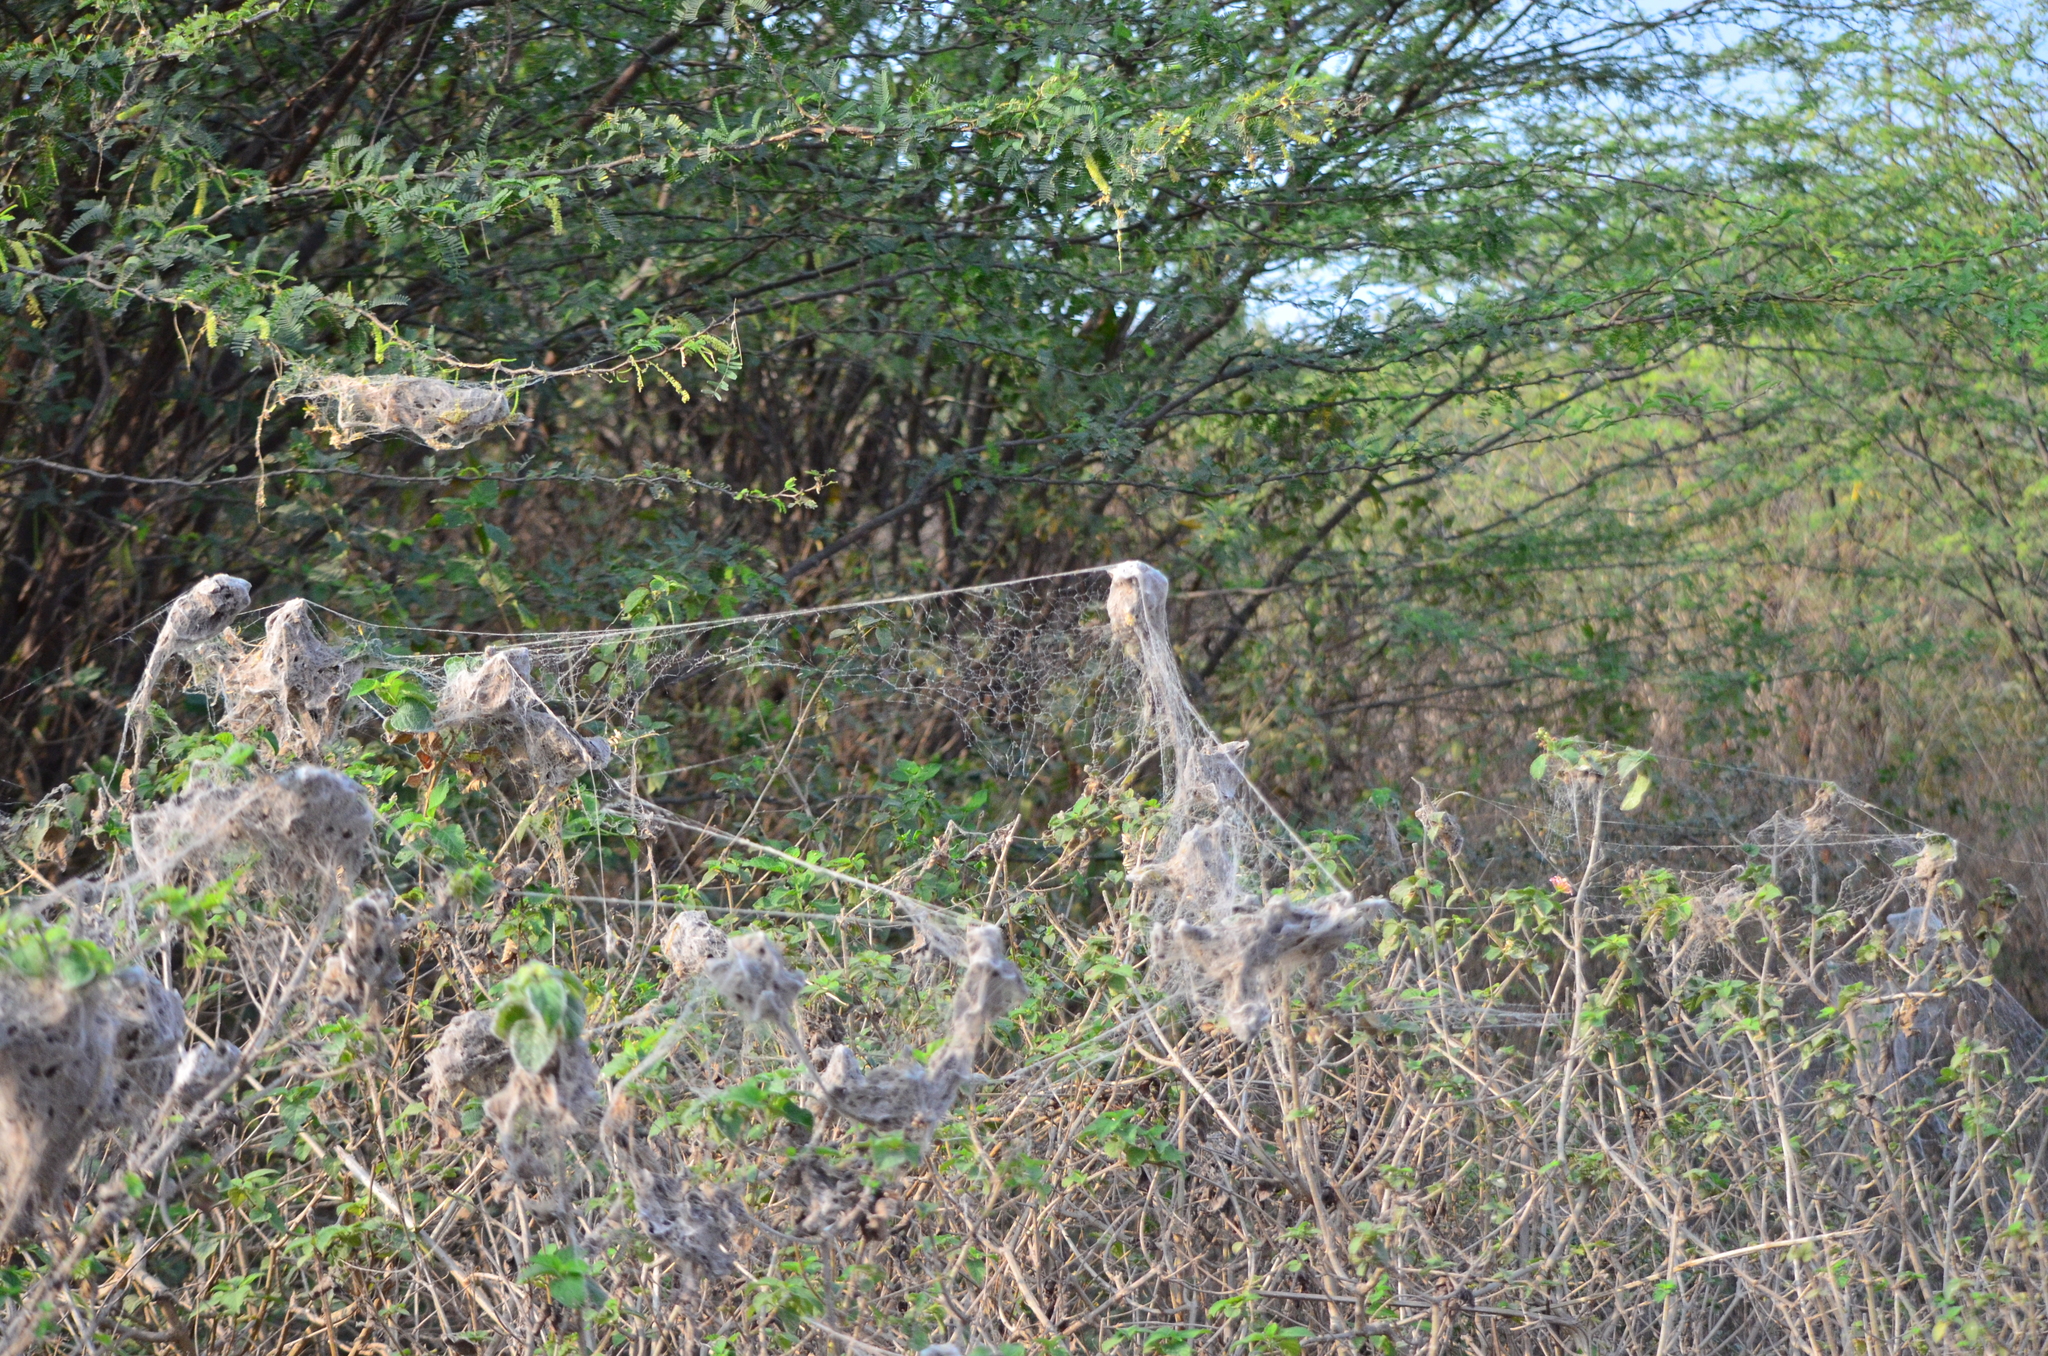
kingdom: Animalia
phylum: Arthropoda
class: Arachnida
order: Araneae
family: Eresidae
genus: Stegodyphus
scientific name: Stegodyphus sarasinorum
